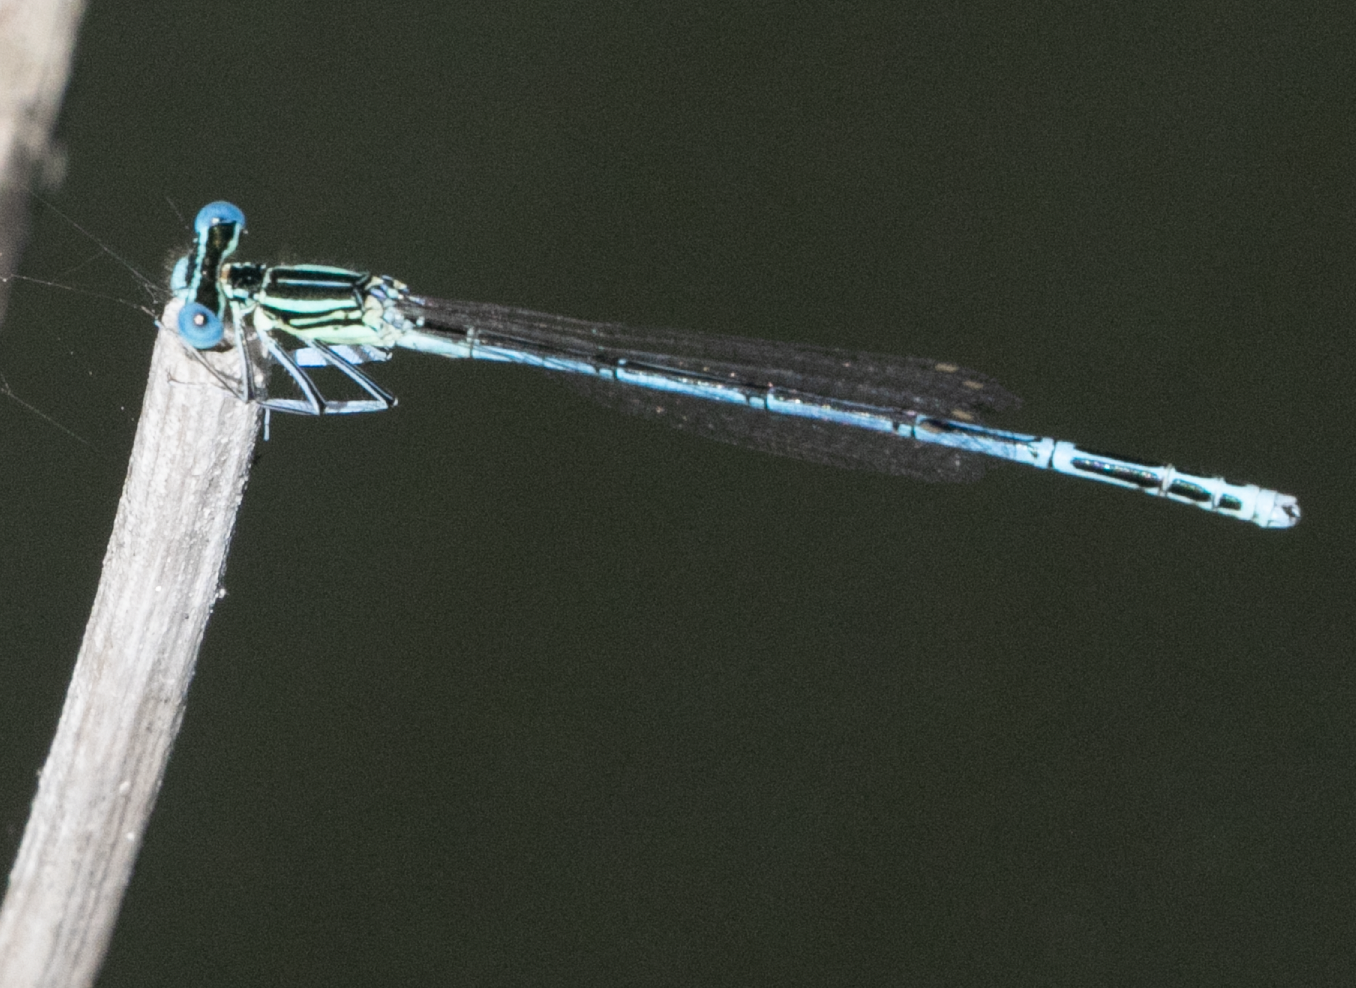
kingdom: Animalia
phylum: Arthropoda
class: Insecta
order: Odonata
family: Platycnemididae
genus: Platycnemis
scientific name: Platycnemis pennipes
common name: White-legged damselfly
